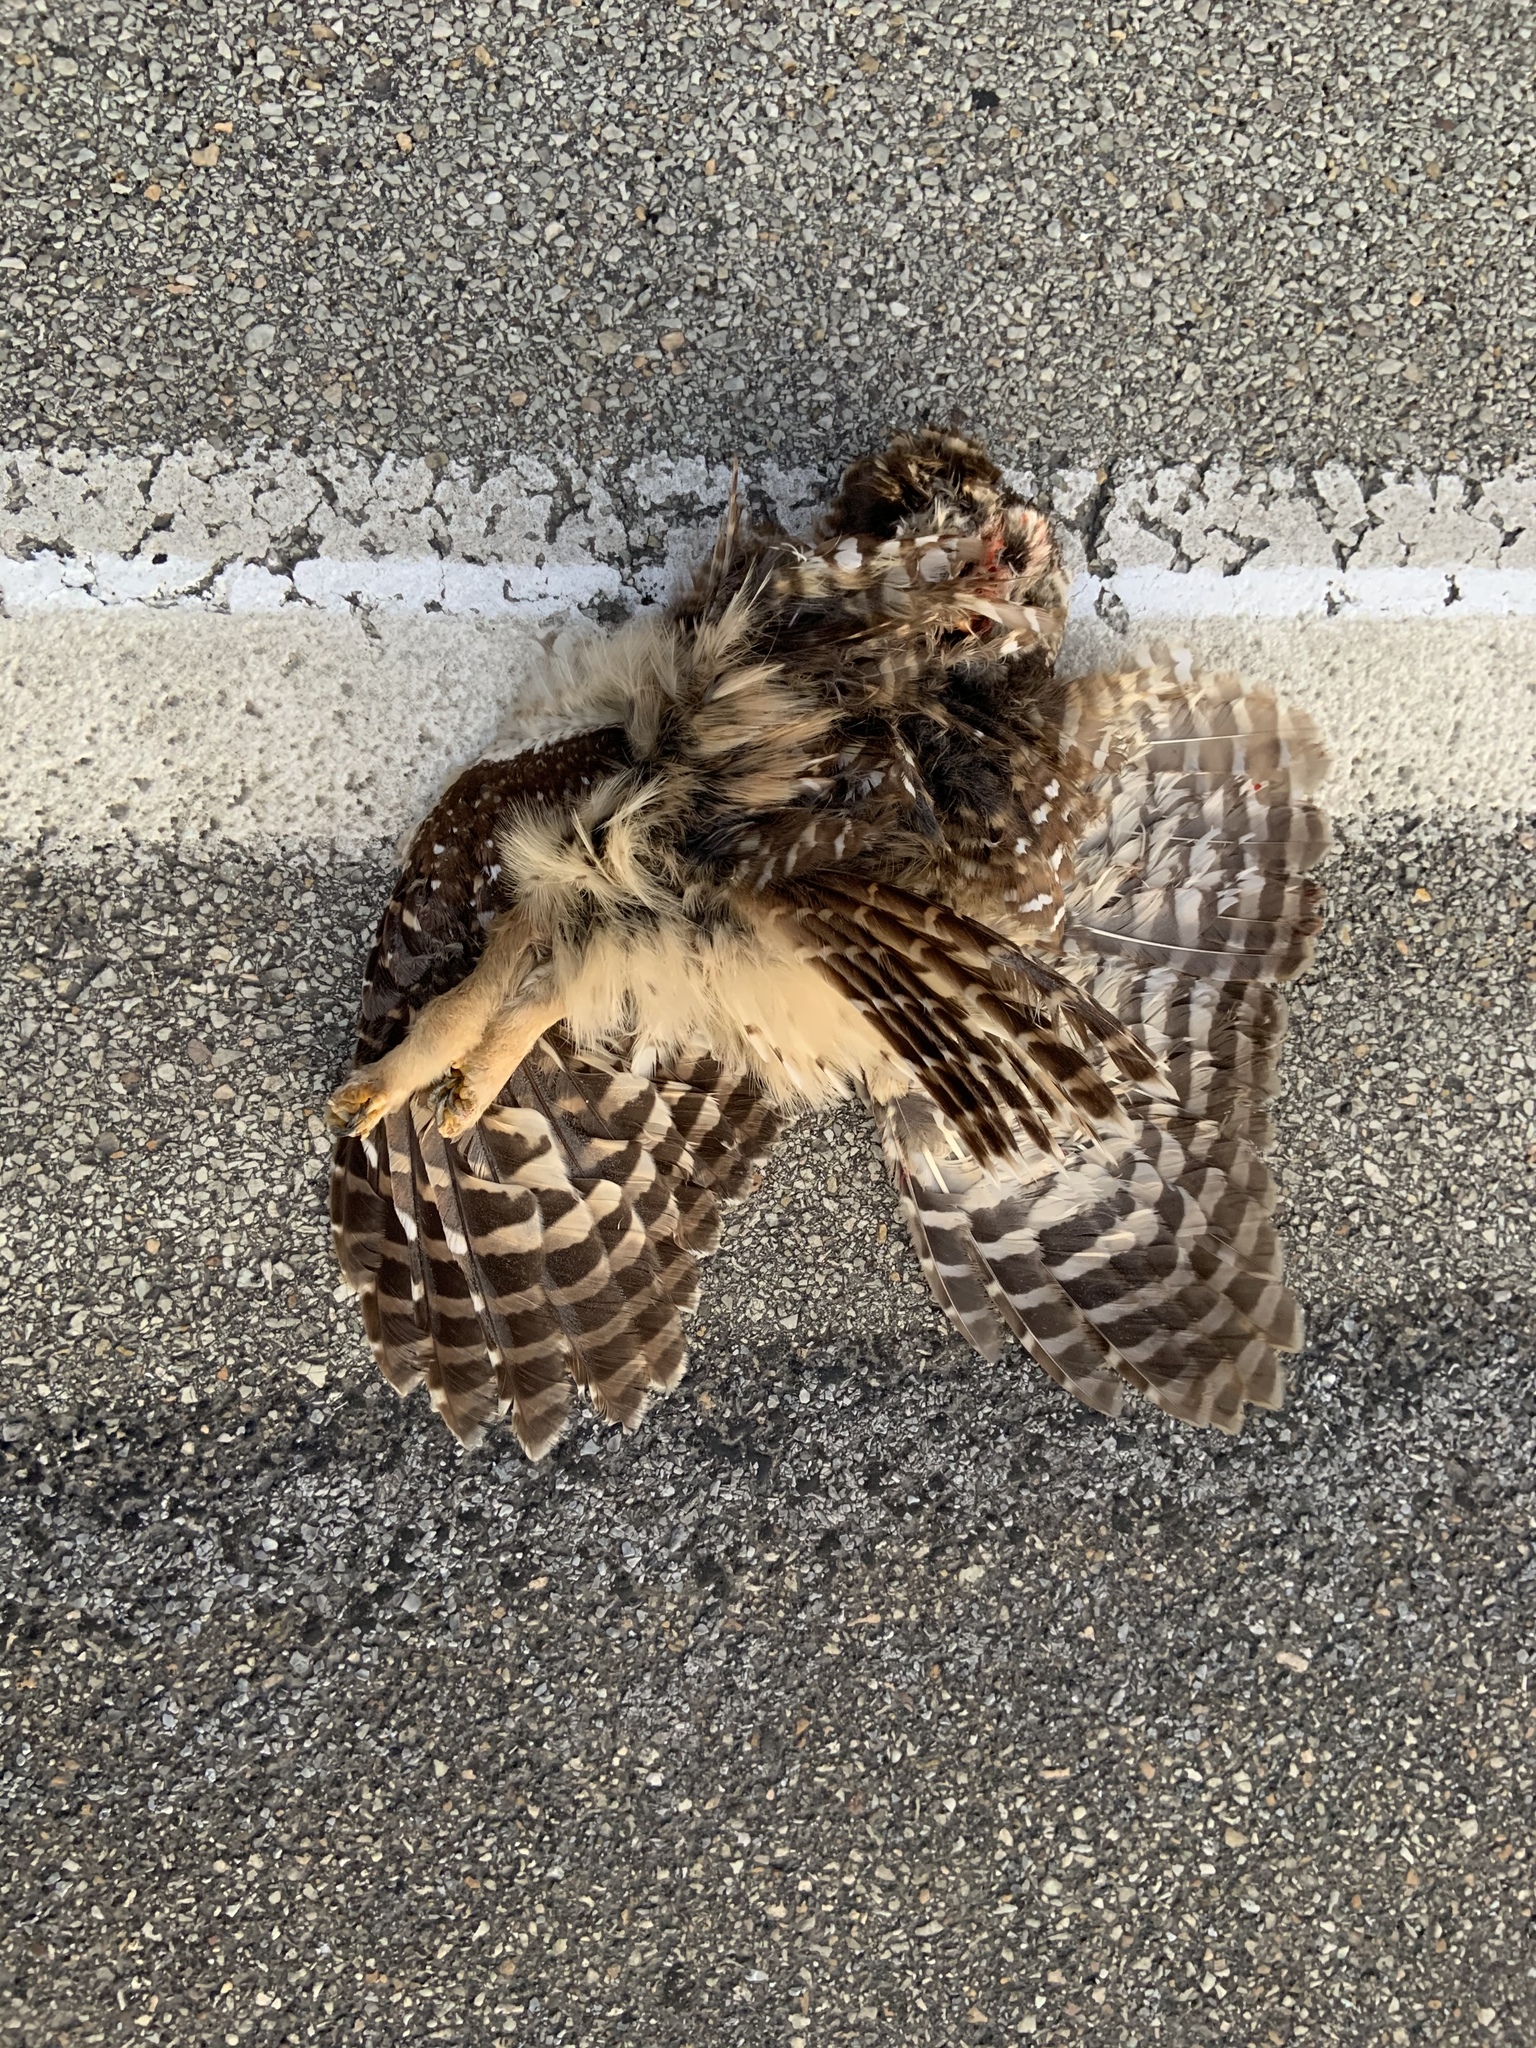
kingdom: Animalia
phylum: Chordata
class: Aves
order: Strigiformes
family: Strigidae
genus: Strix
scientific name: Strix varia
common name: Barred owl
